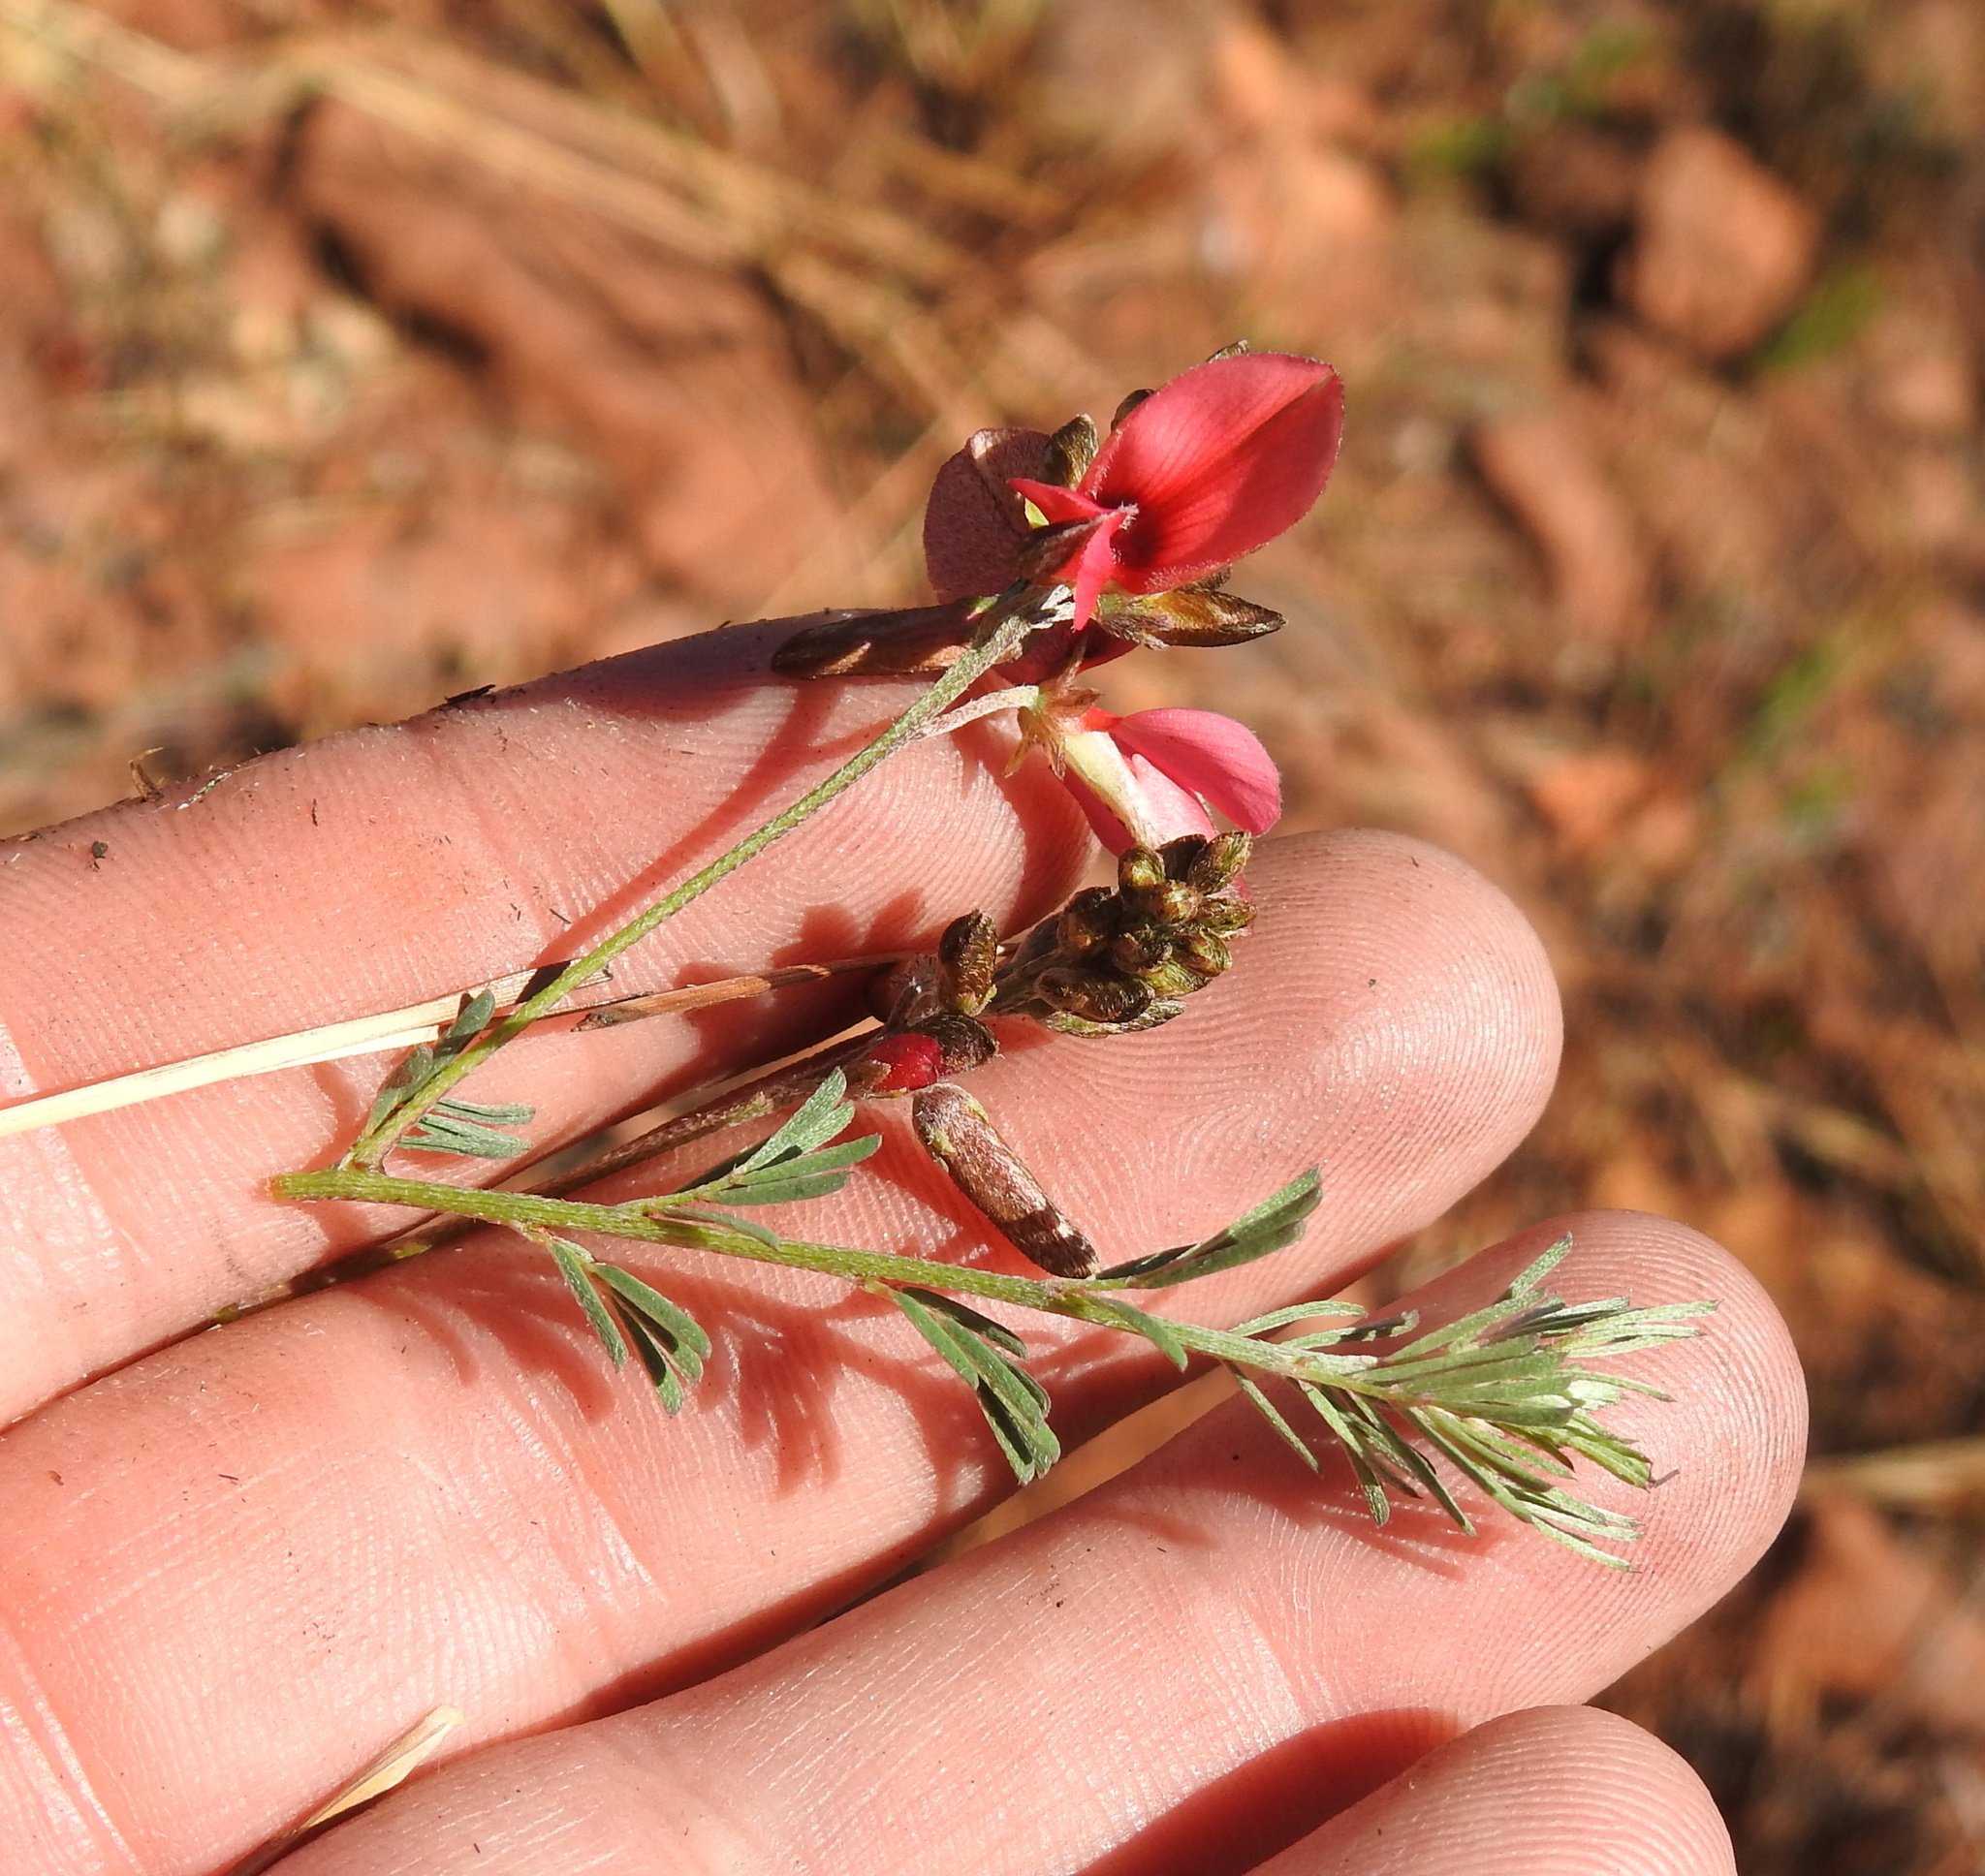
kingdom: Plantae
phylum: Tracheophyta
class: Magnoliopsida
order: Fabales
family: Fabaceae
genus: Indigofera
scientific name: Indigofera hedyantha
